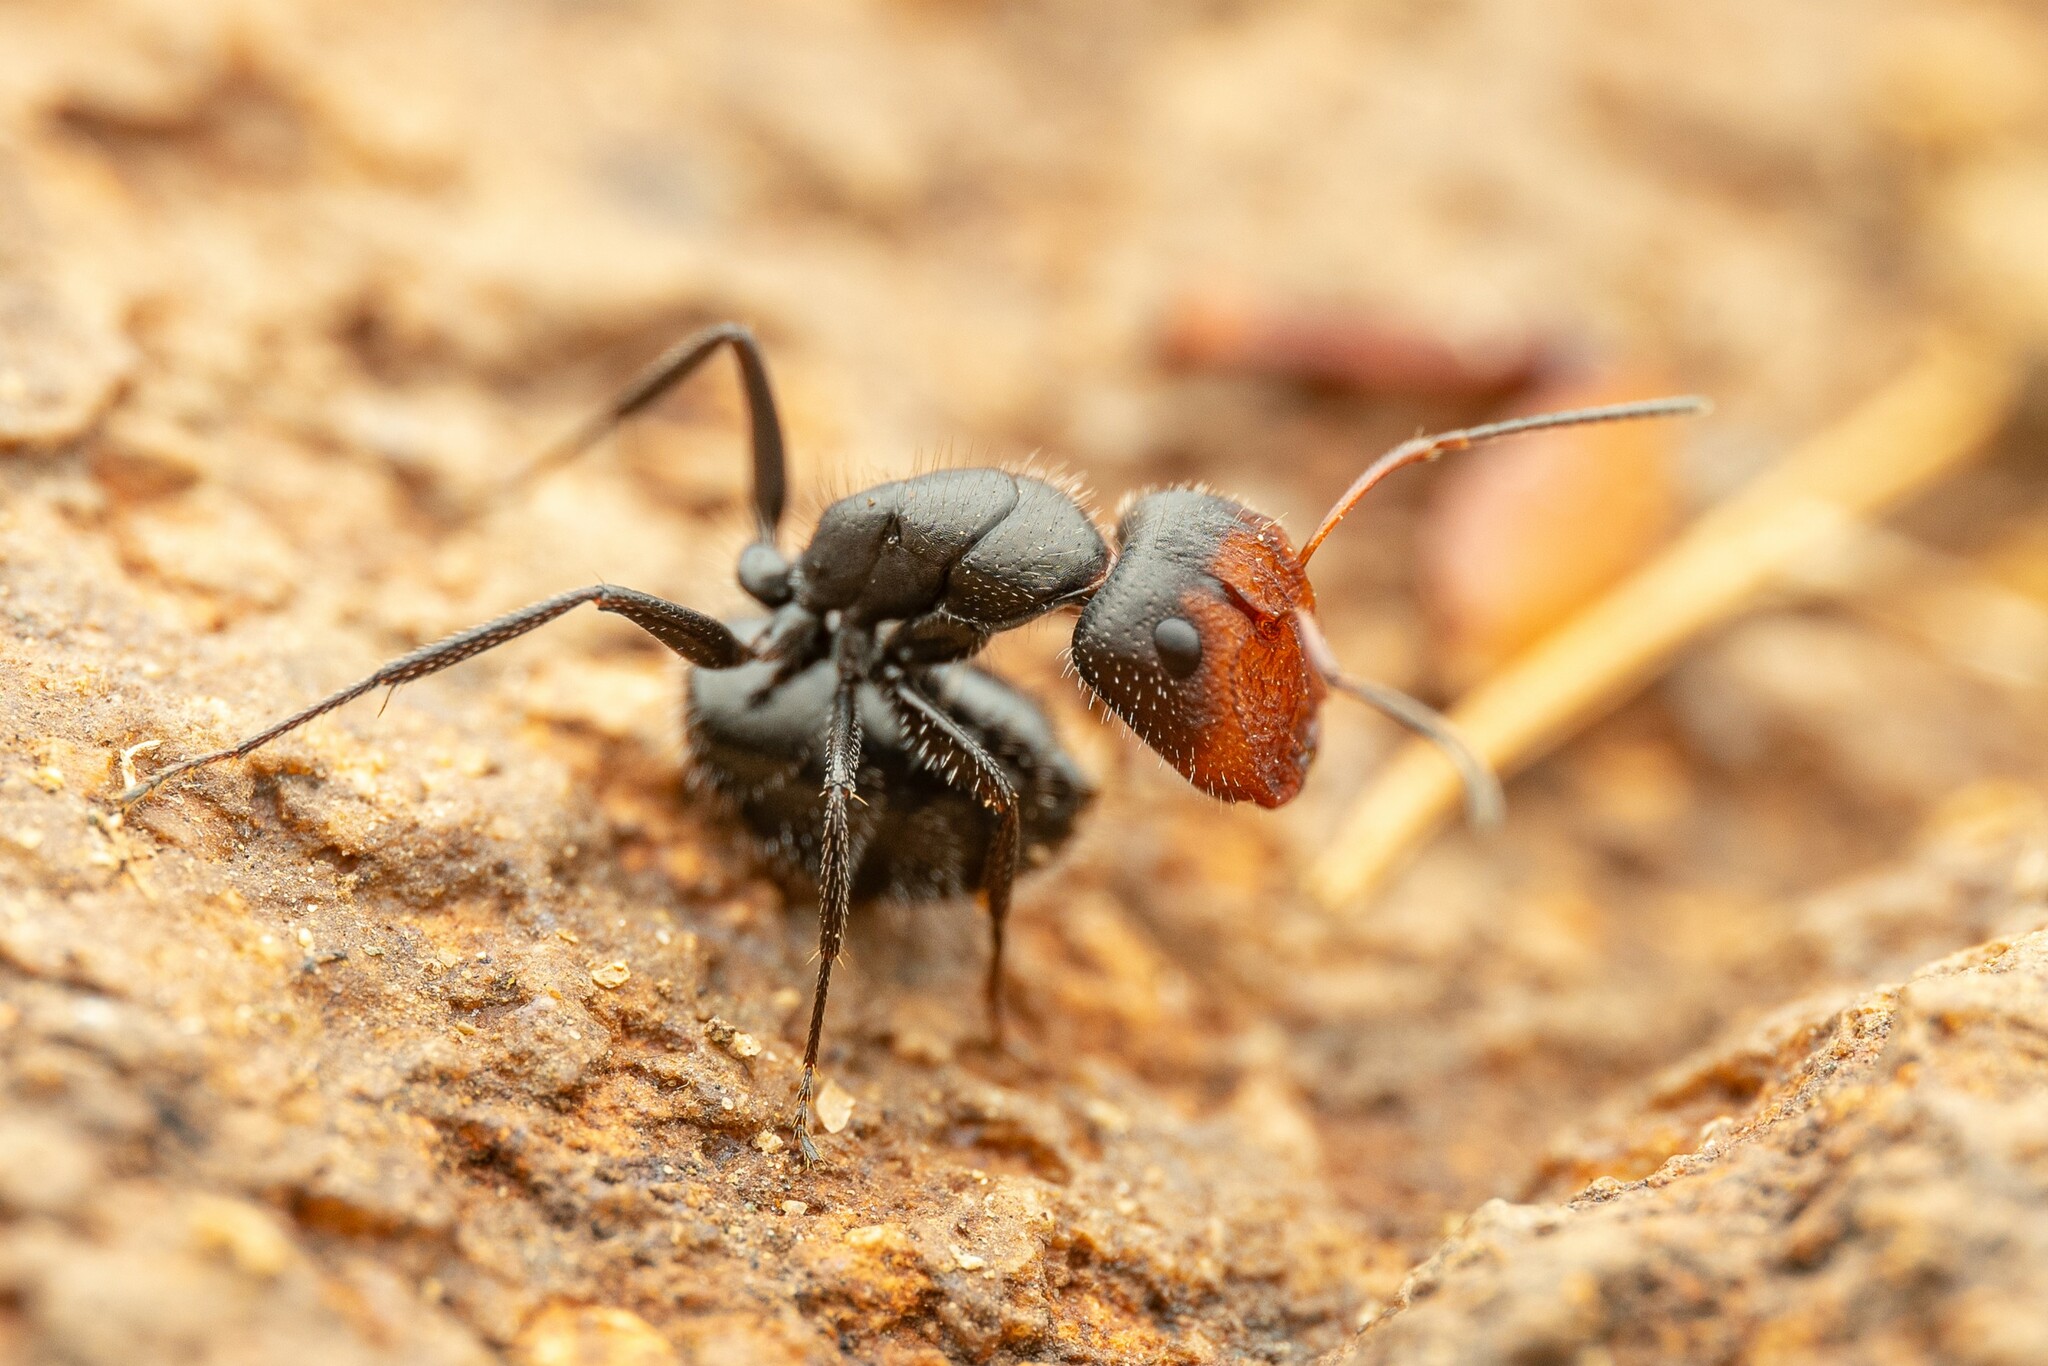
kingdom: Animalia
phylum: Arthropoda
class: Insecta
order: Hymenoptera
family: Formicidae
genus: Camponotus
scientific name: Camponotus ulcerosus
